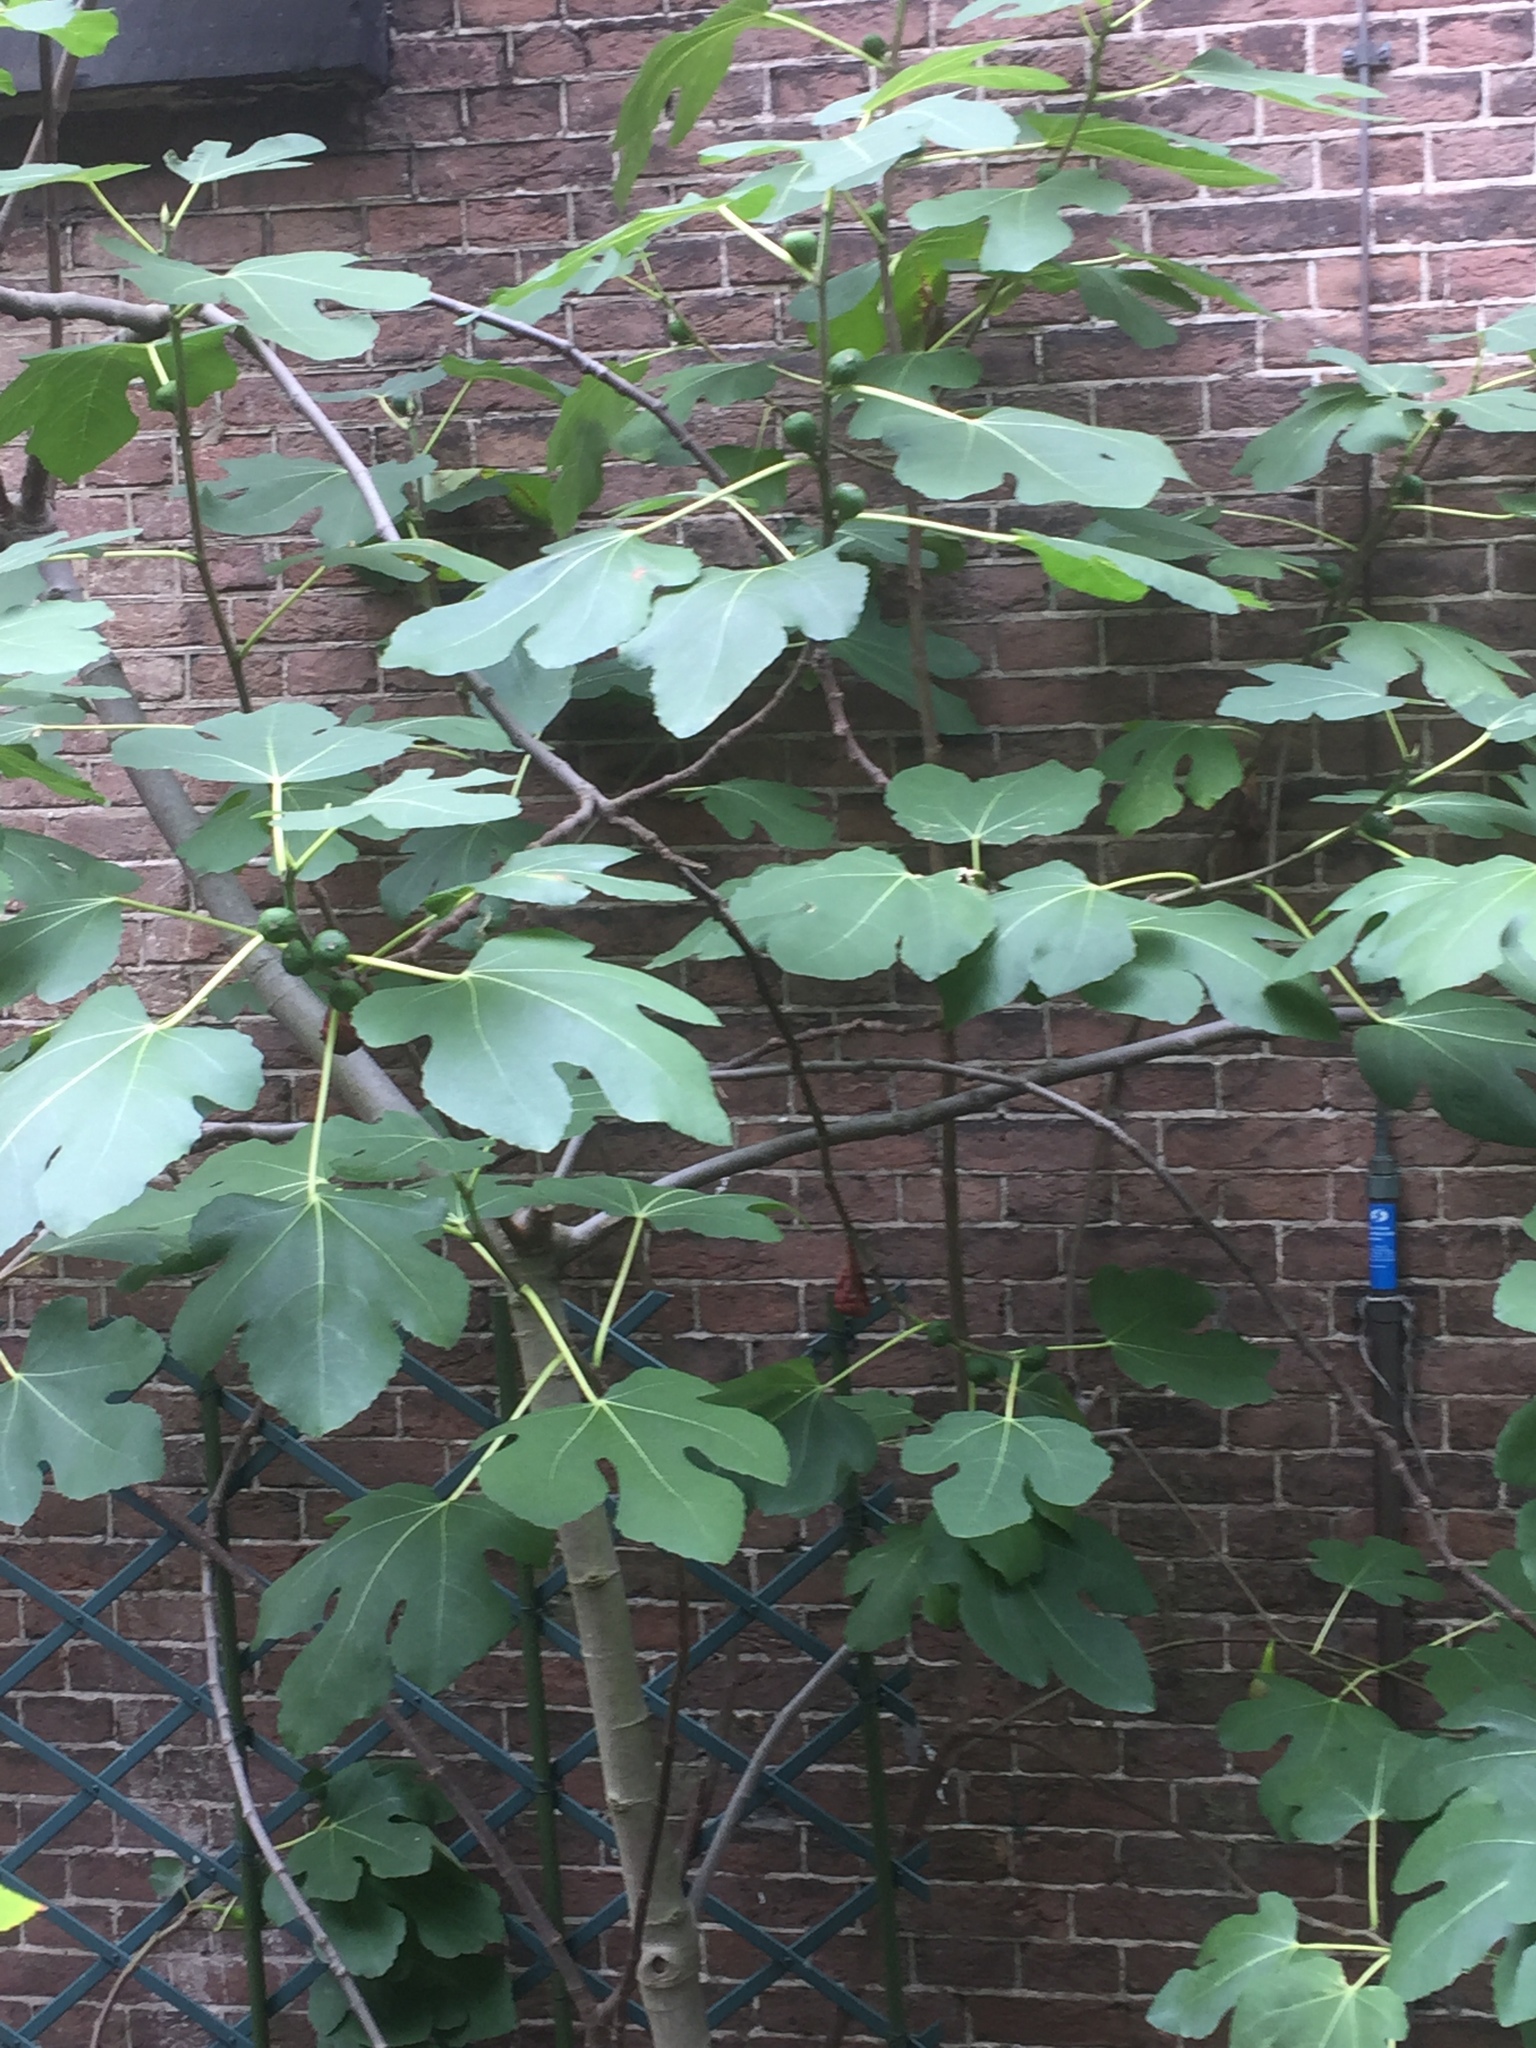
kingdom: Plantae
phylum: Tracheophyta
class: Magnoliopsida
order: Rosales
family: Moraceae
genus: Ficus
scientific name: Ficus carica
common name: Fig
